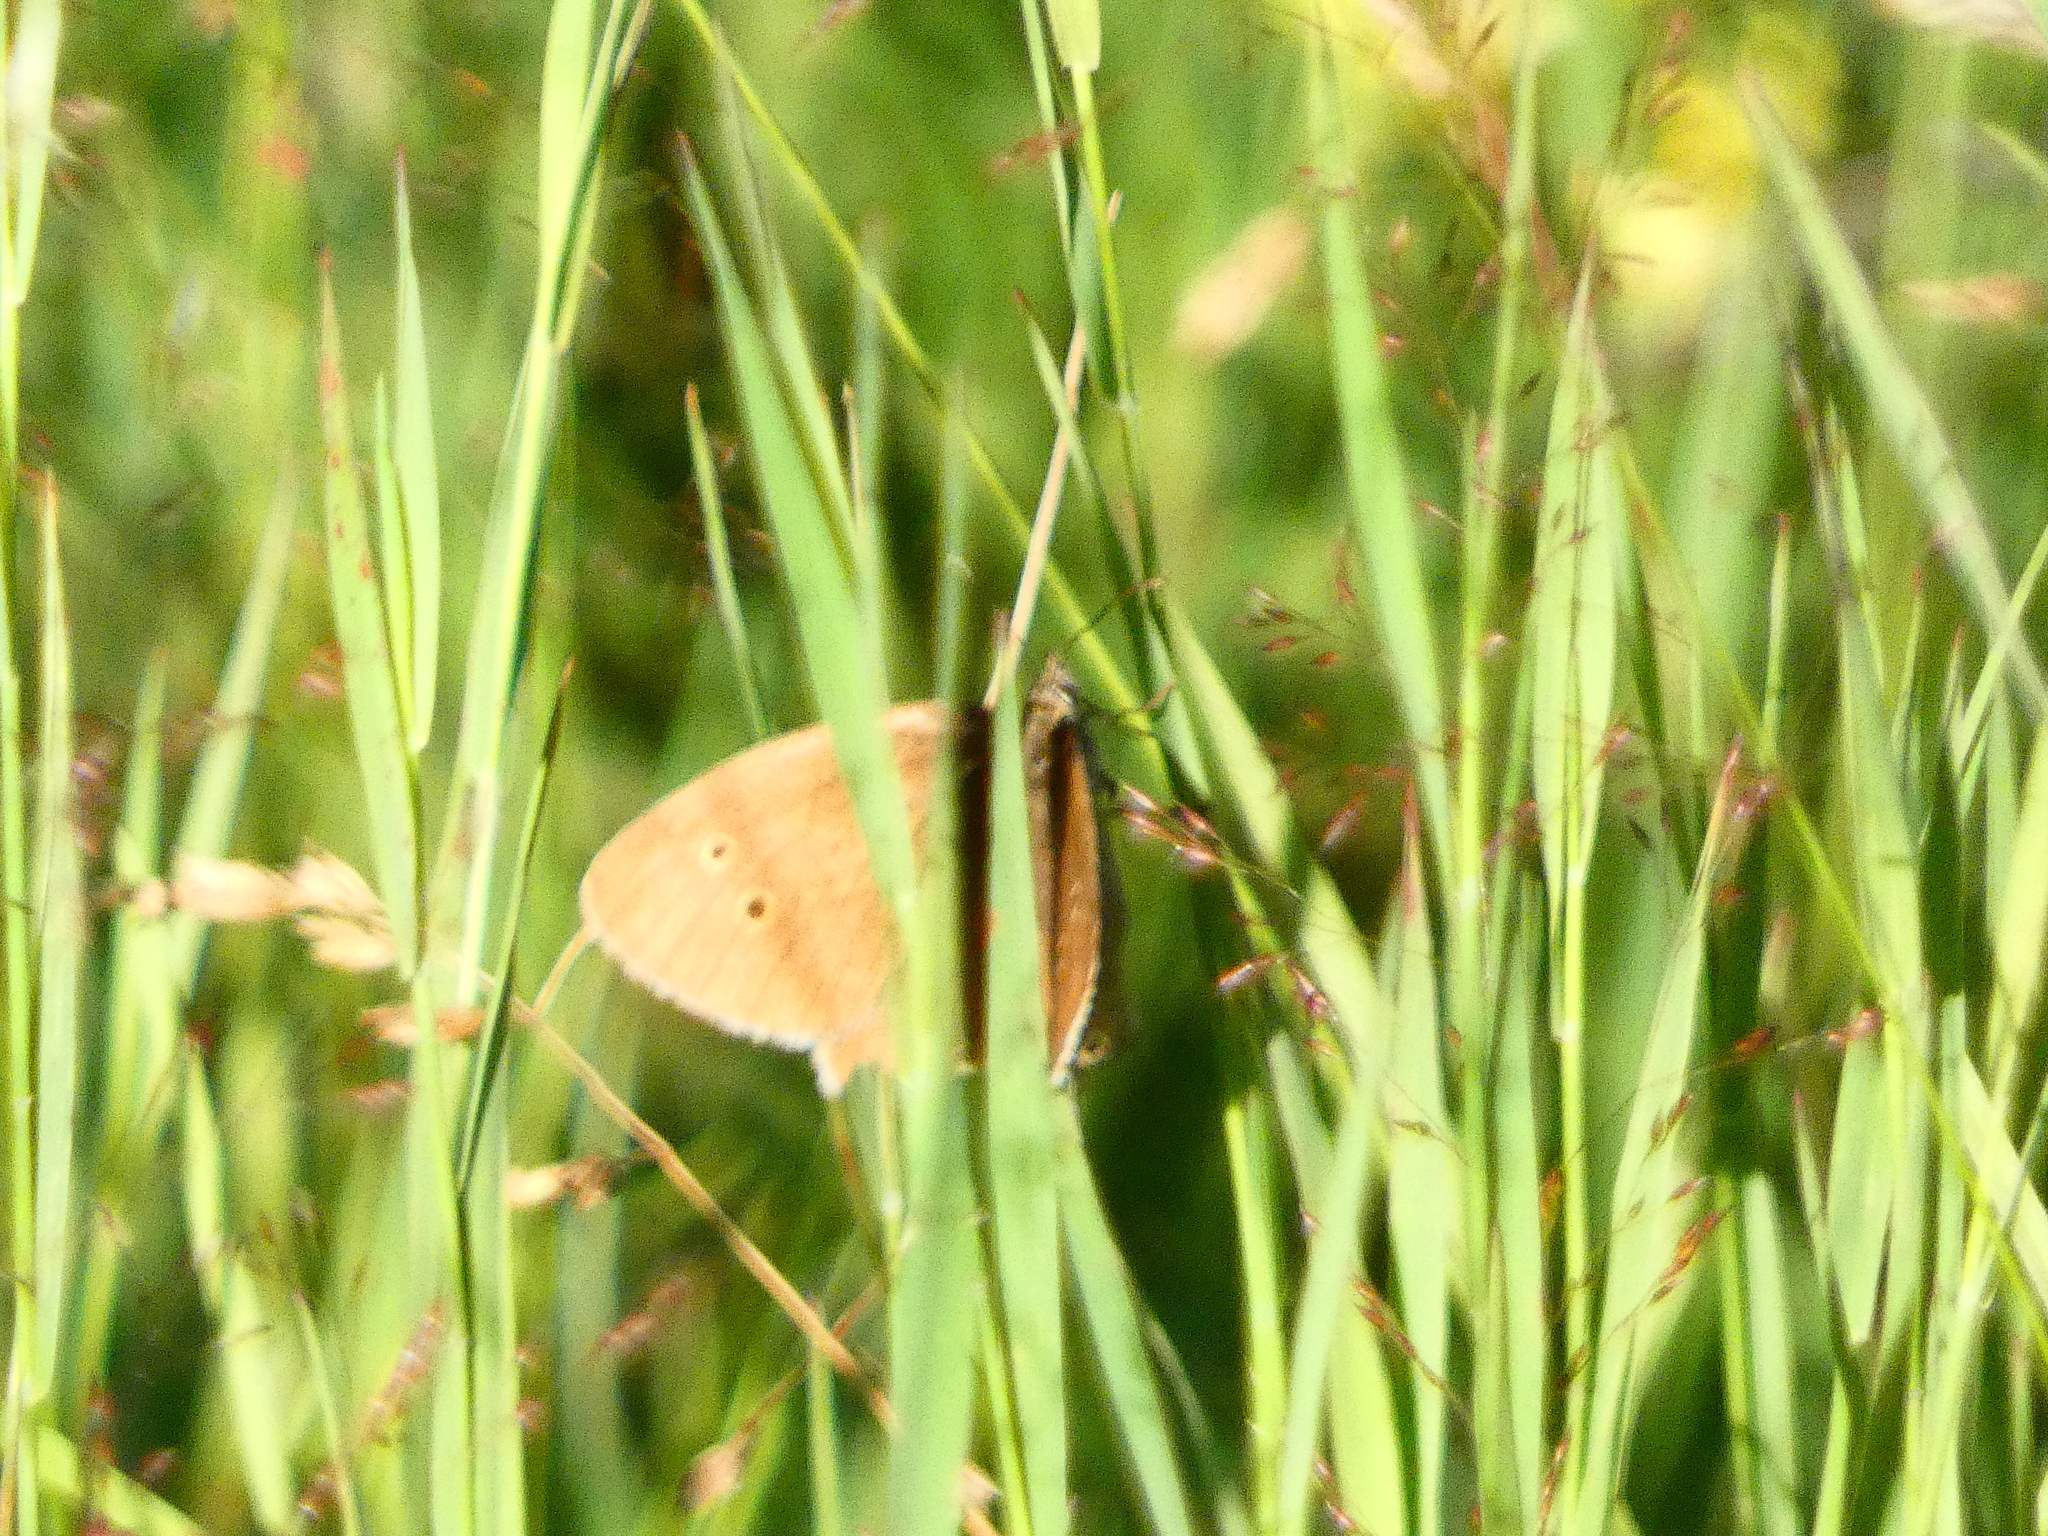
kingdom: Animalia
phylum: Arthropoda
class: Insecta
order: Lepidoptera
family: Nymphalidae
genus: Aphantopus
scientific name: Aphantopus hyperantus
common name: Ringlet
